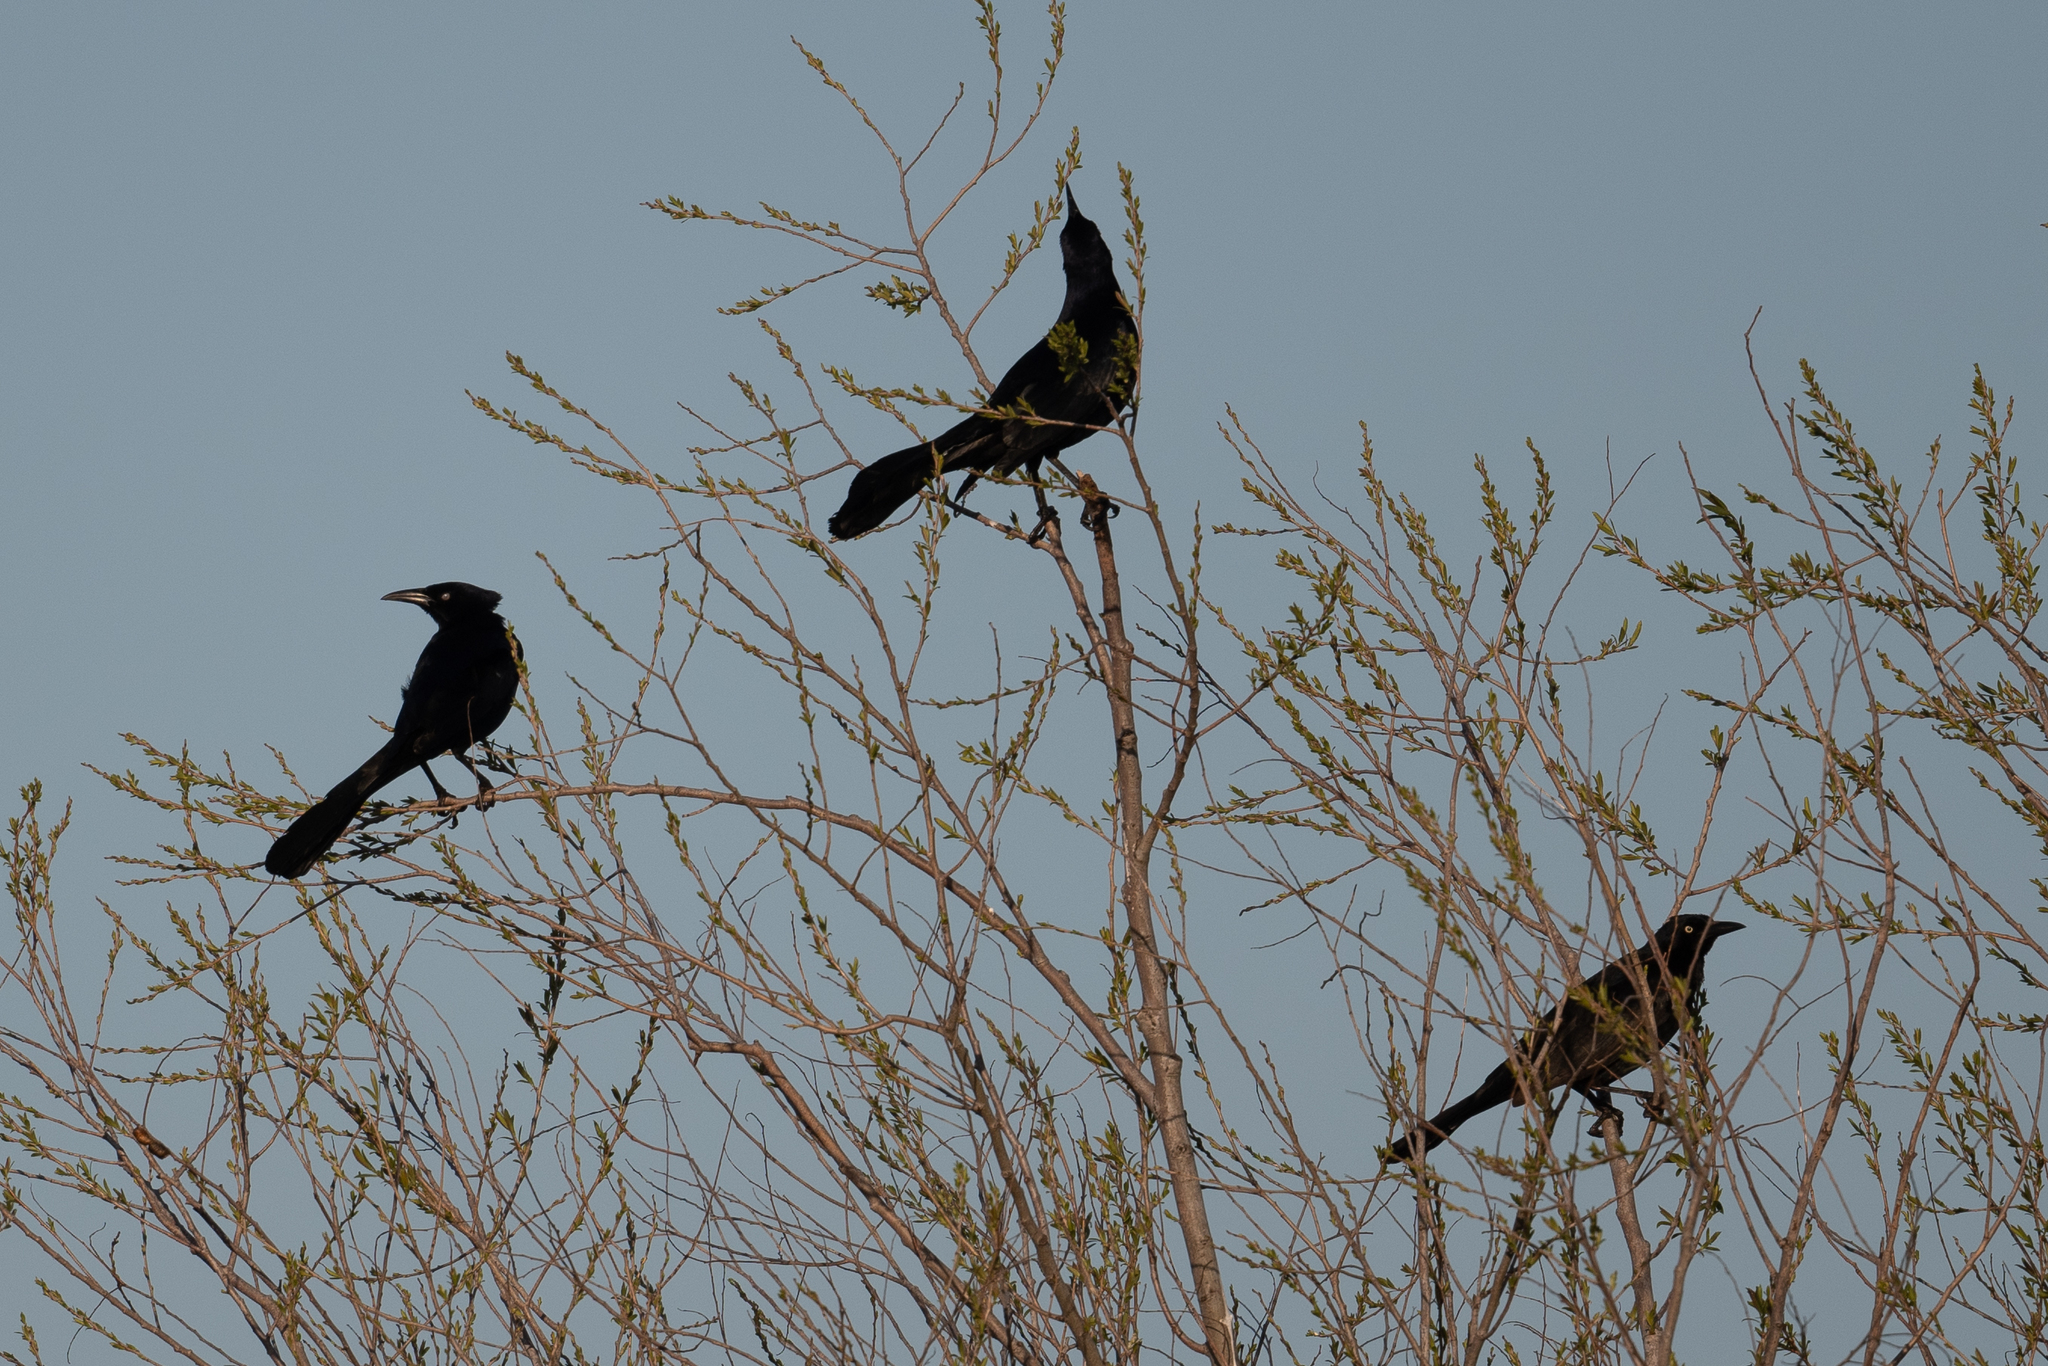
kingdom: Animalia
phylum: Chordata
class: Aves
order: Passeriformes
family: Icteridae
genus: Quiscalus
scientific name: Quiscalus mexicanus
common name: Great-tailed grackle
